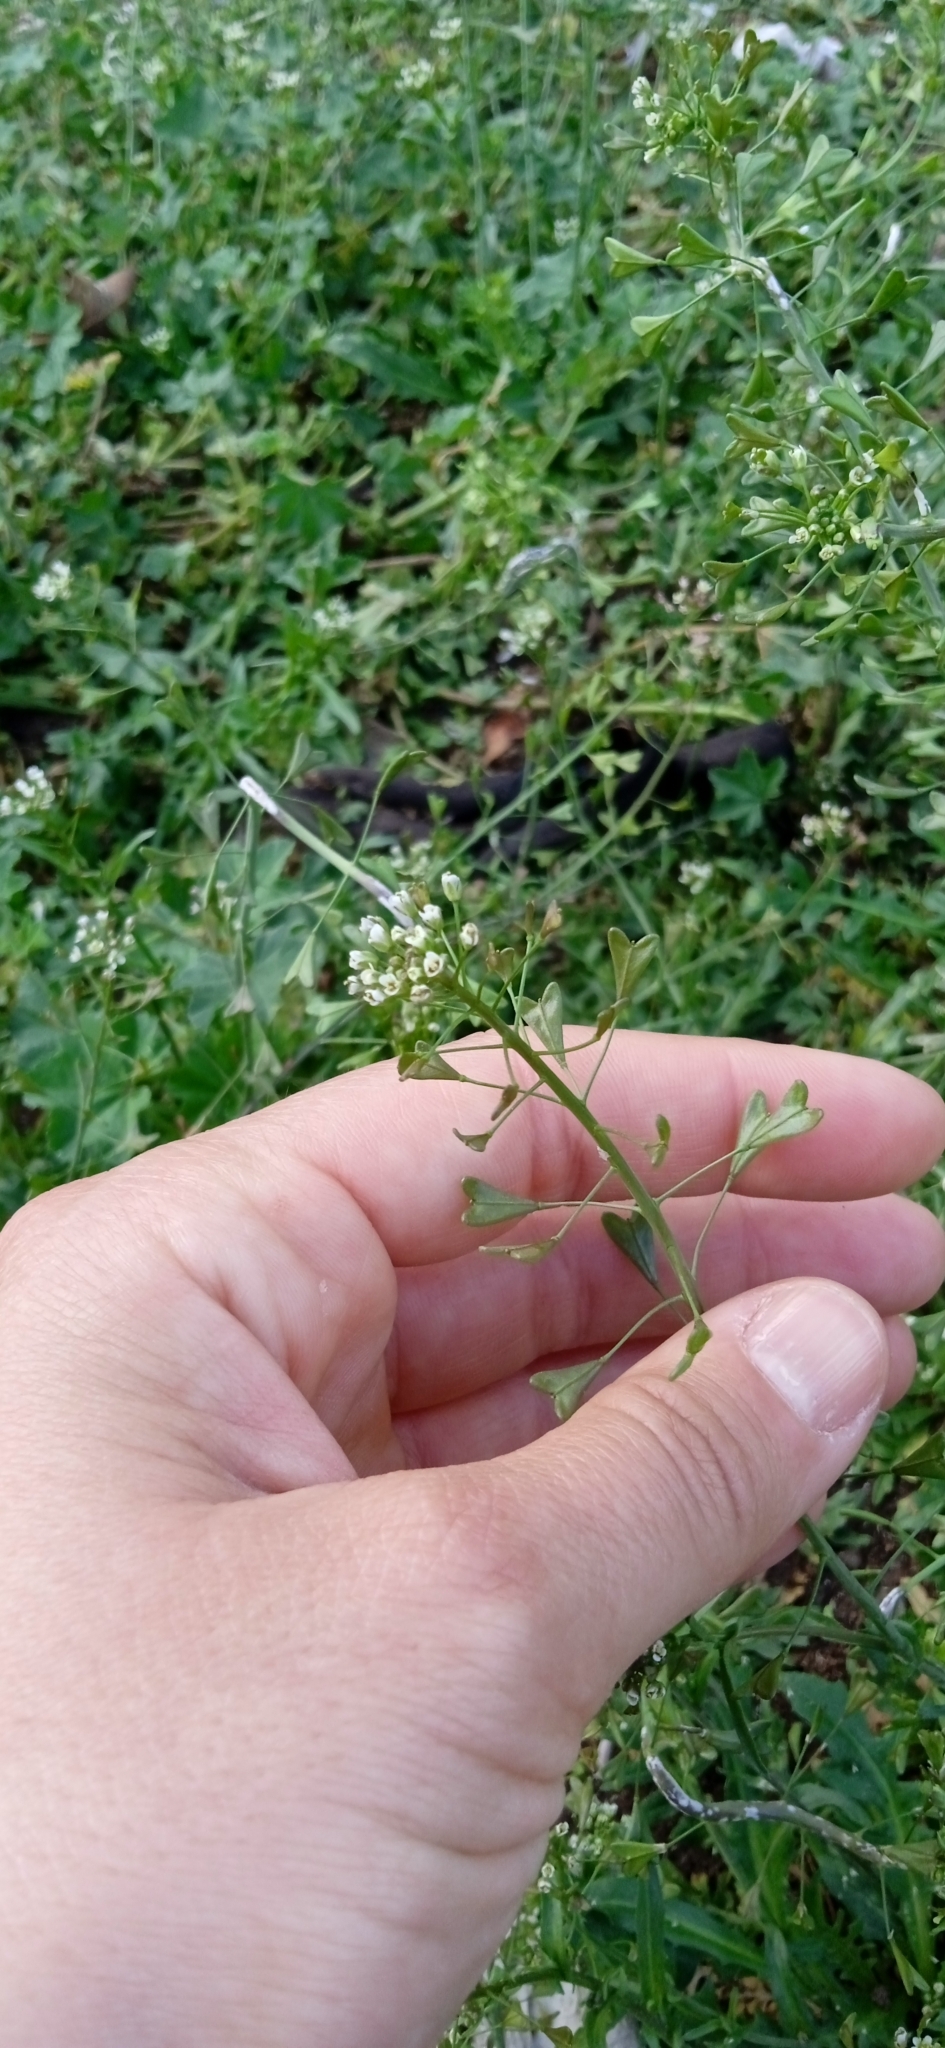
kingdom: Plantae
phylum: Tracheophyta
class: Magnoliopsida
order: Brassicales
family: Brassicaceae
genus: Capsella
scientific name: Capsella bursa-pastoris
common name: Shepherd's purse
